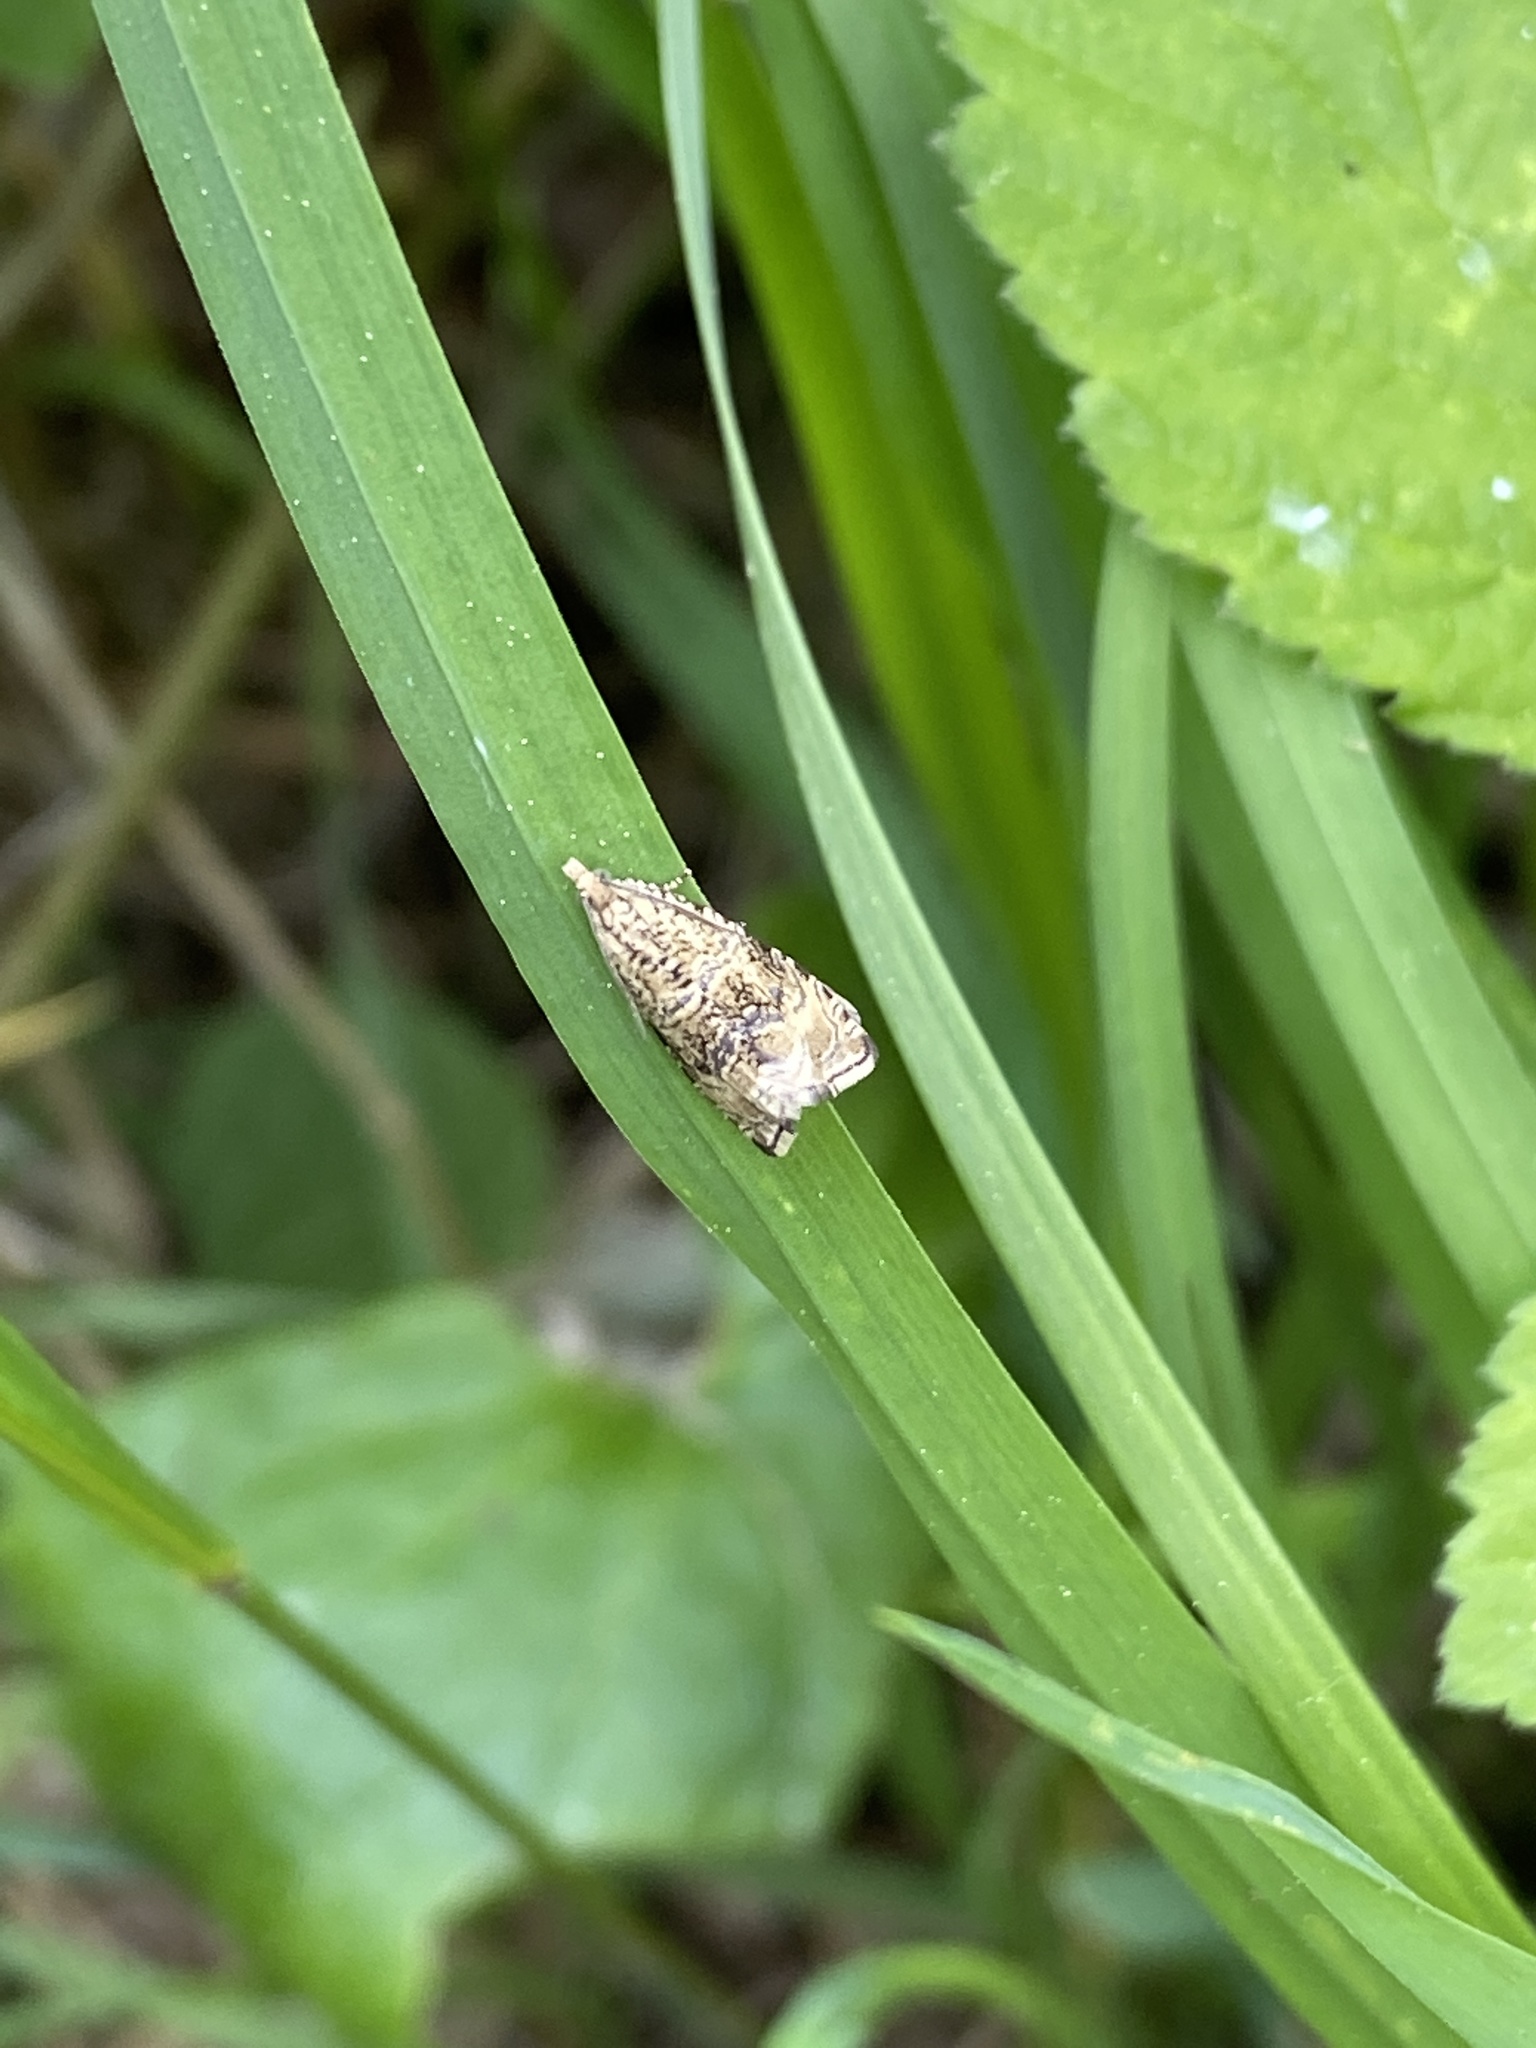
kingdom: Animalia
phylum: Arthropoda
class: Insecta
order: Lepidoptera
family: Tortricidae
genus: Syricoris
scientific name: Syricoris lacunana
